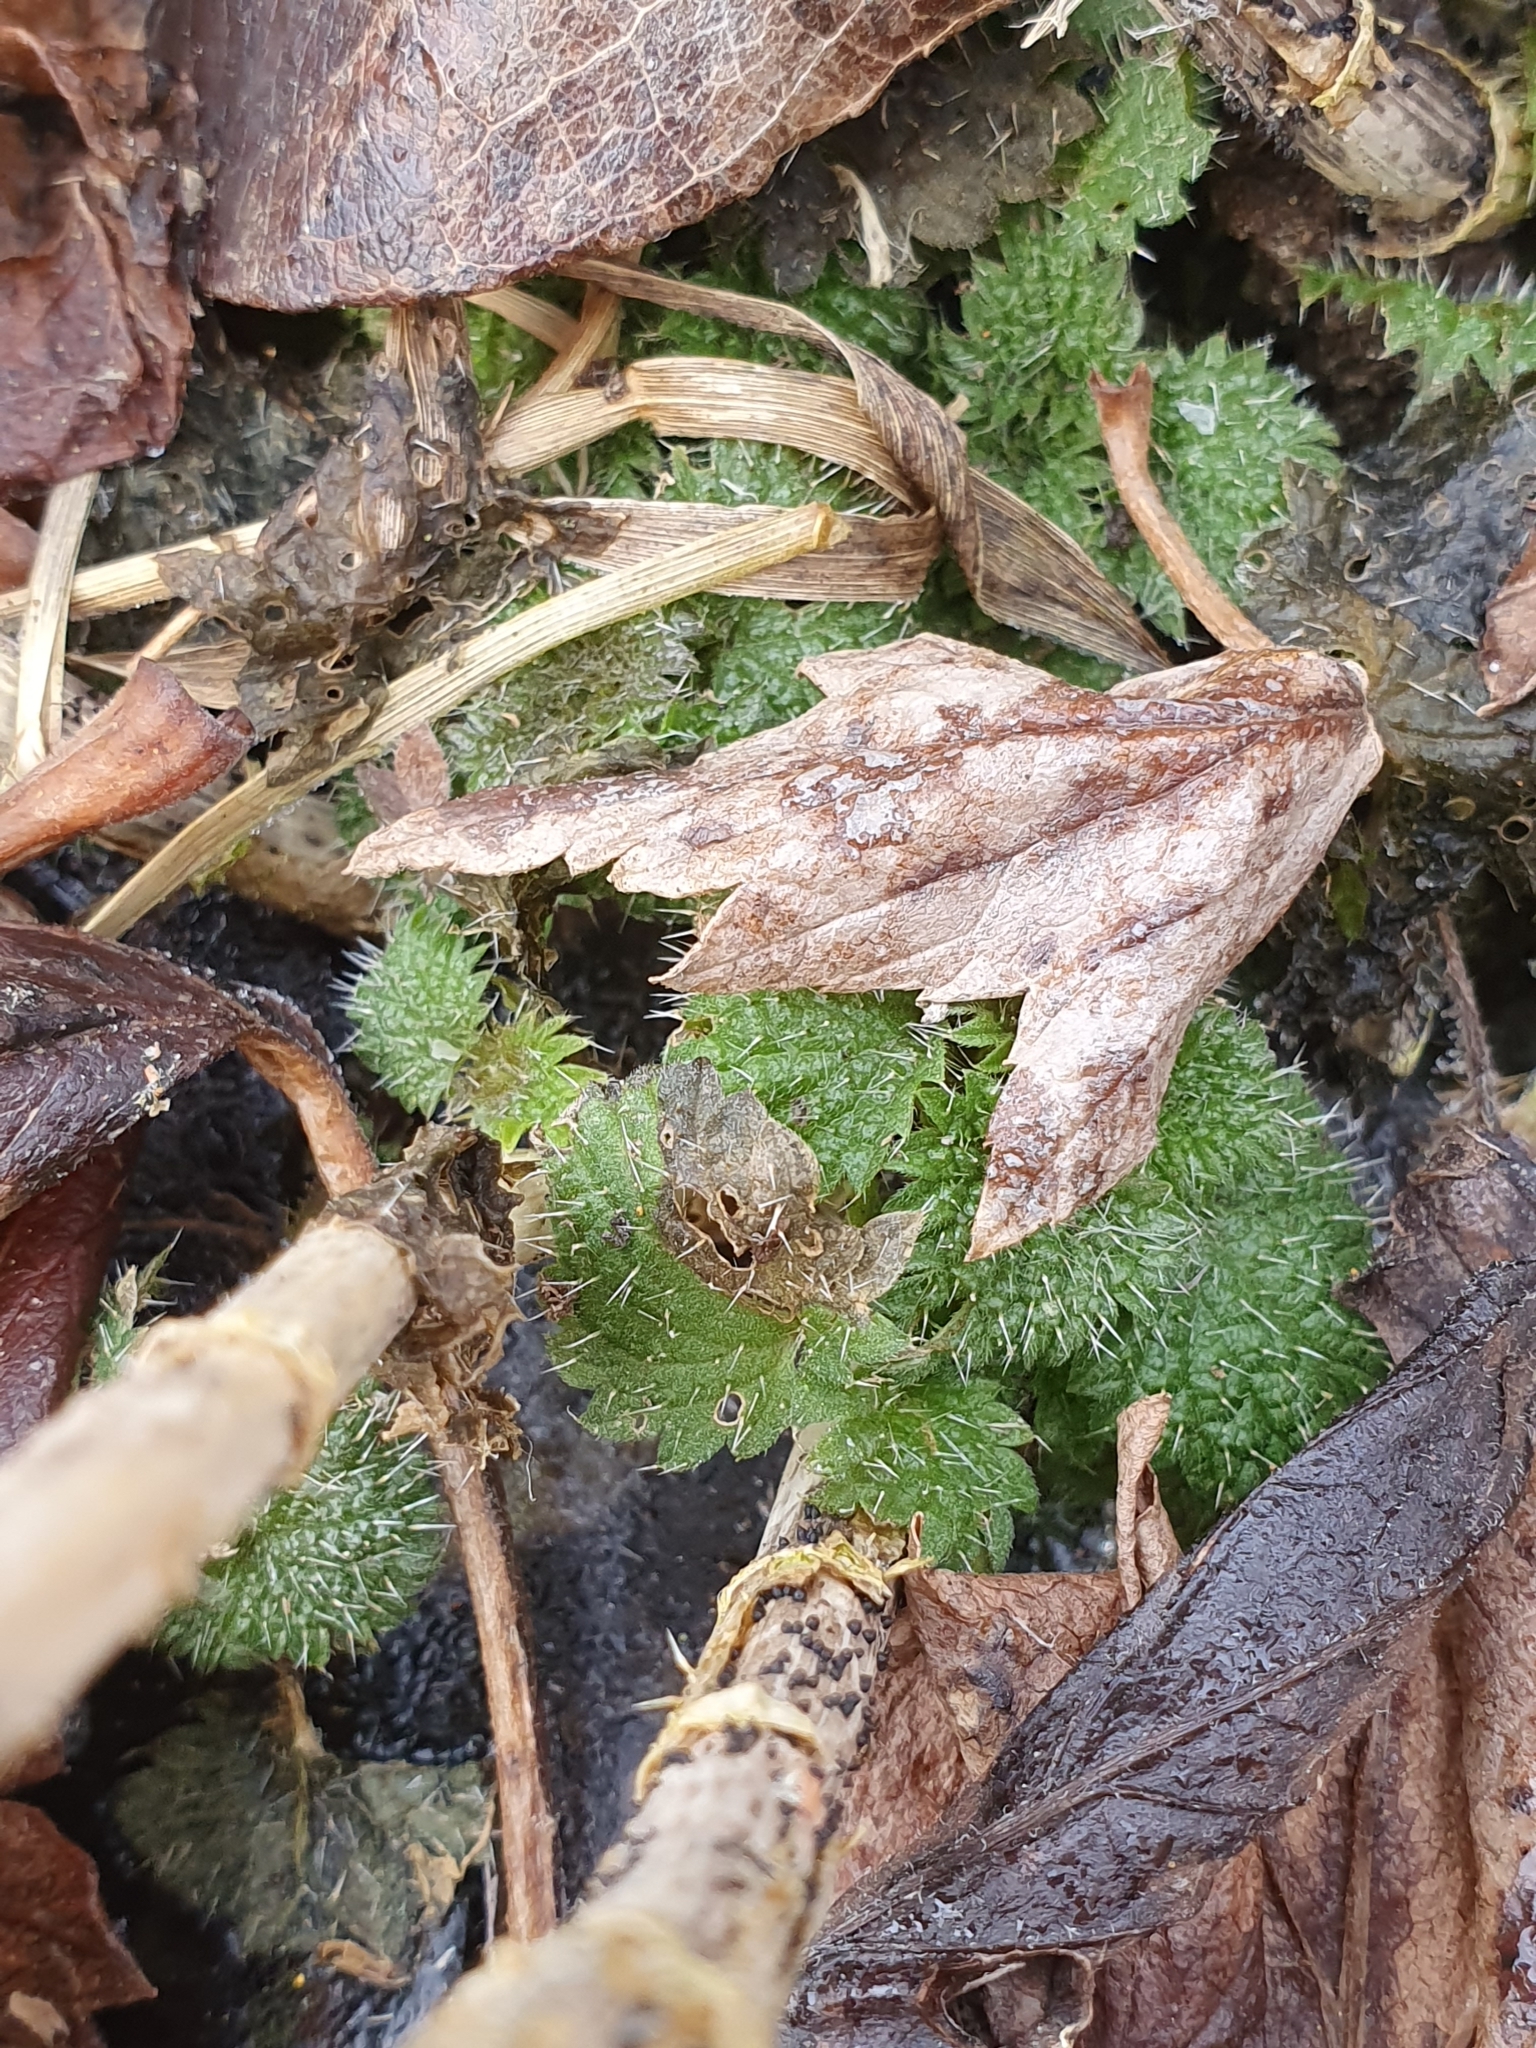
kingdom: Plantae
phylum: Tracheophyta
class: Magnoliopsida
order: Rosales
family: Urticaceae
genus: Urtica
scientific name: Urtica dioica
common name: Common nettle
